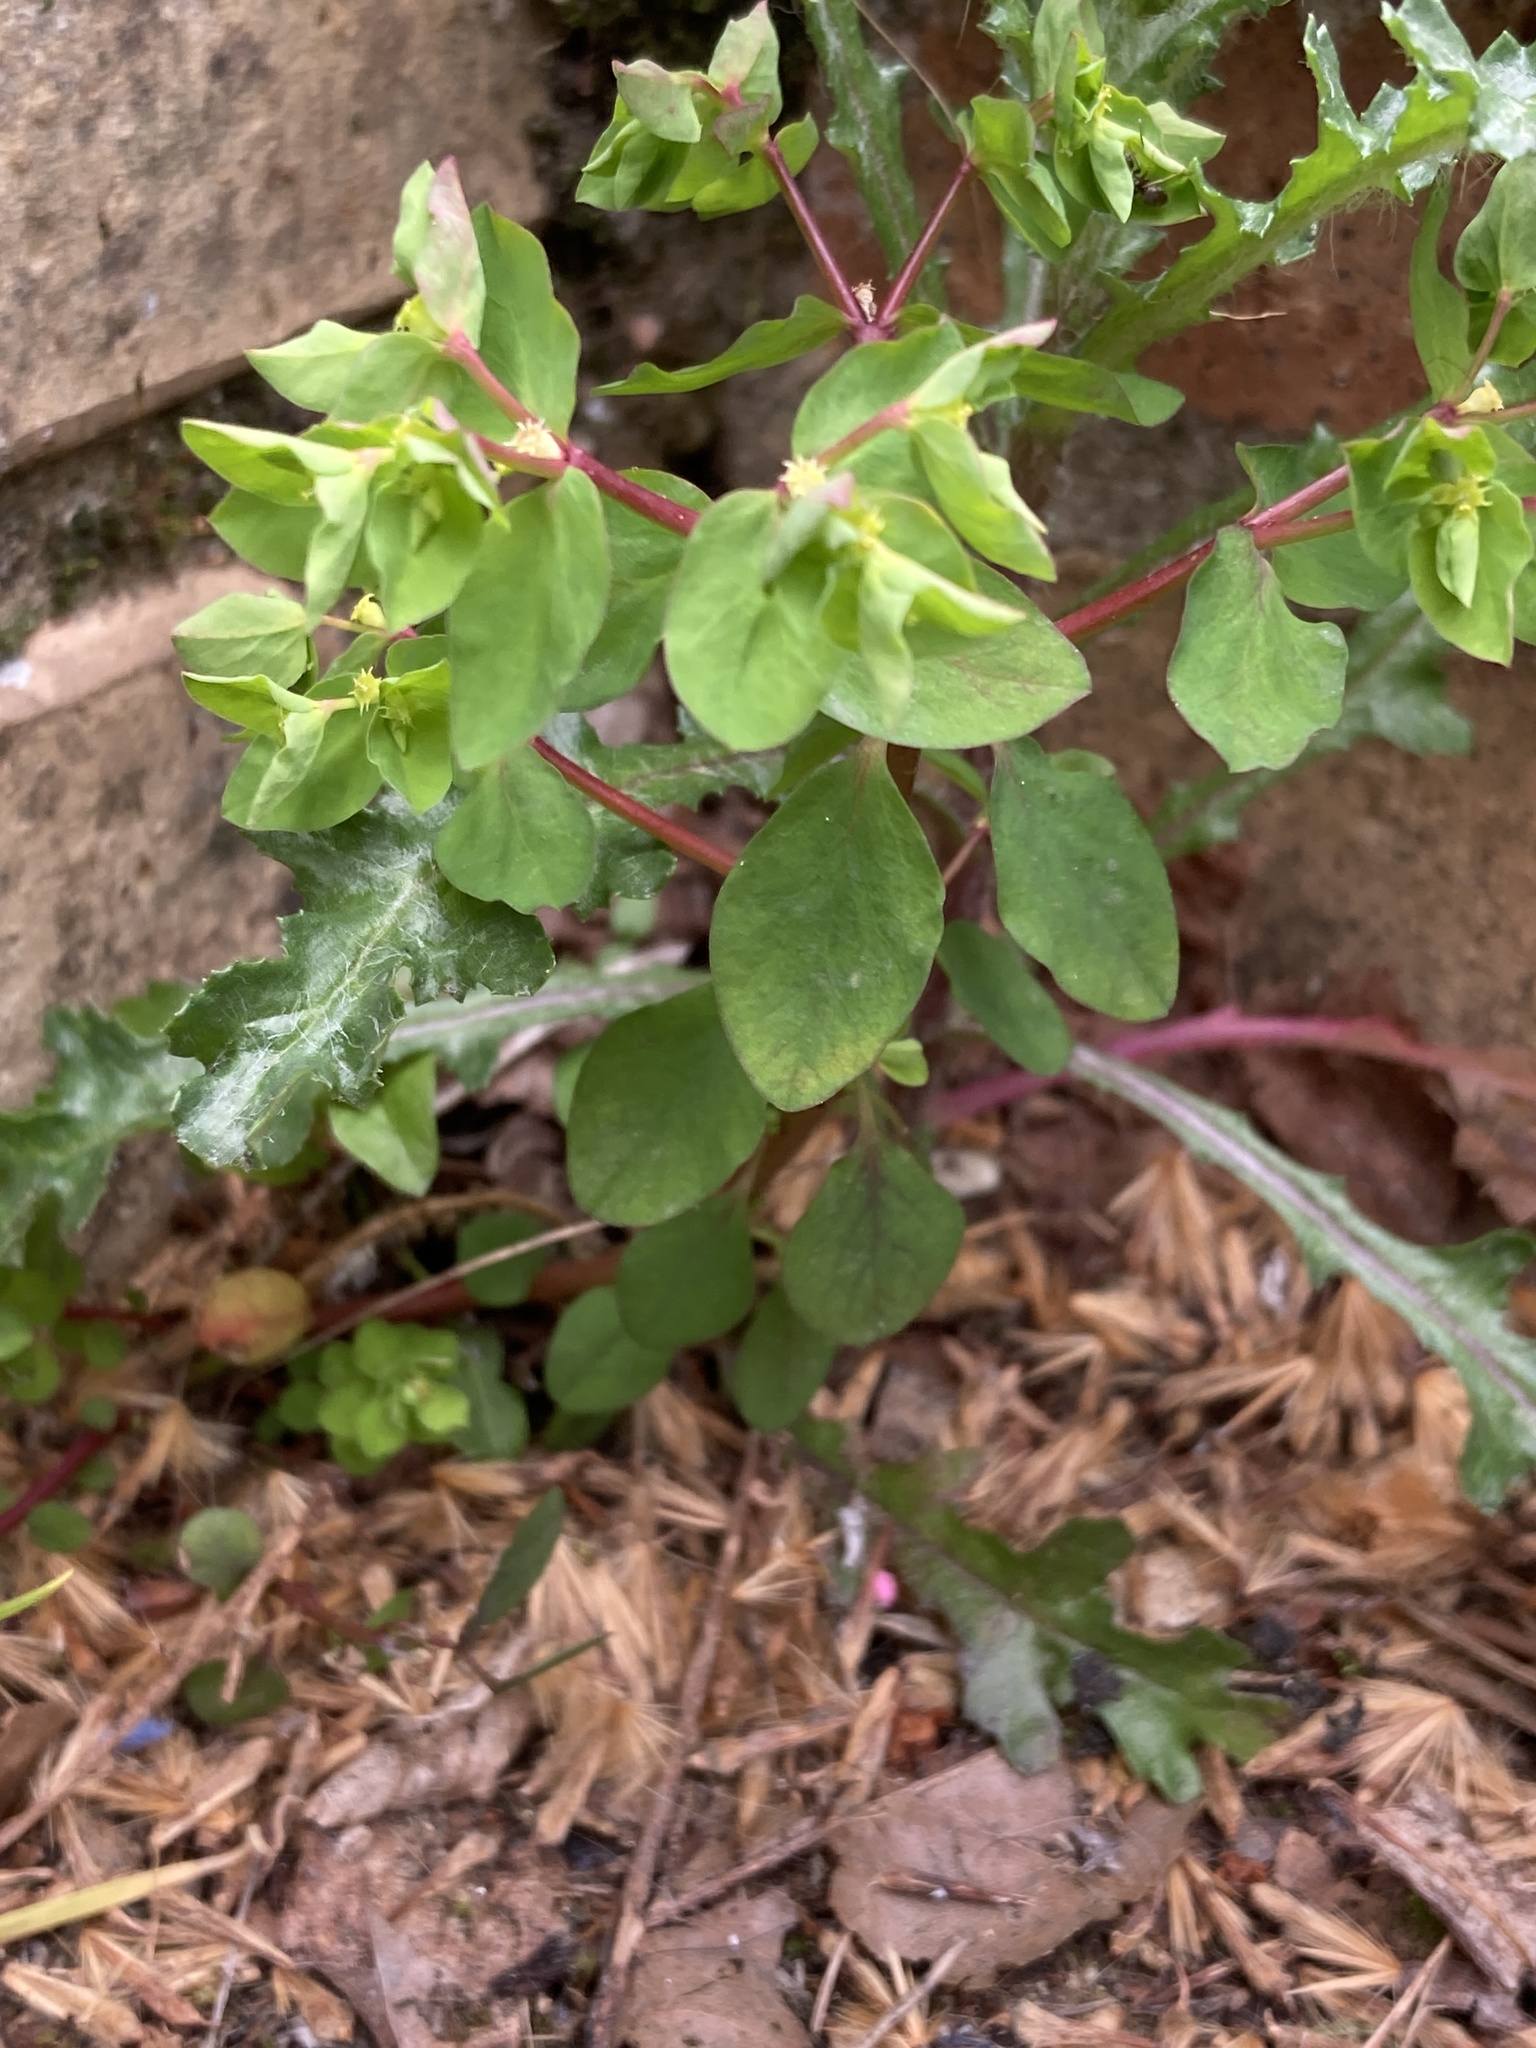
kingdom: Plantae
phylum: Tracheophyta
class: Magnoliopsida
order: Malpighiales
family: Euphorbiaceae
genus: Euphorbia
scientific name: Euphorbia peplus
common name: Petty spurge
